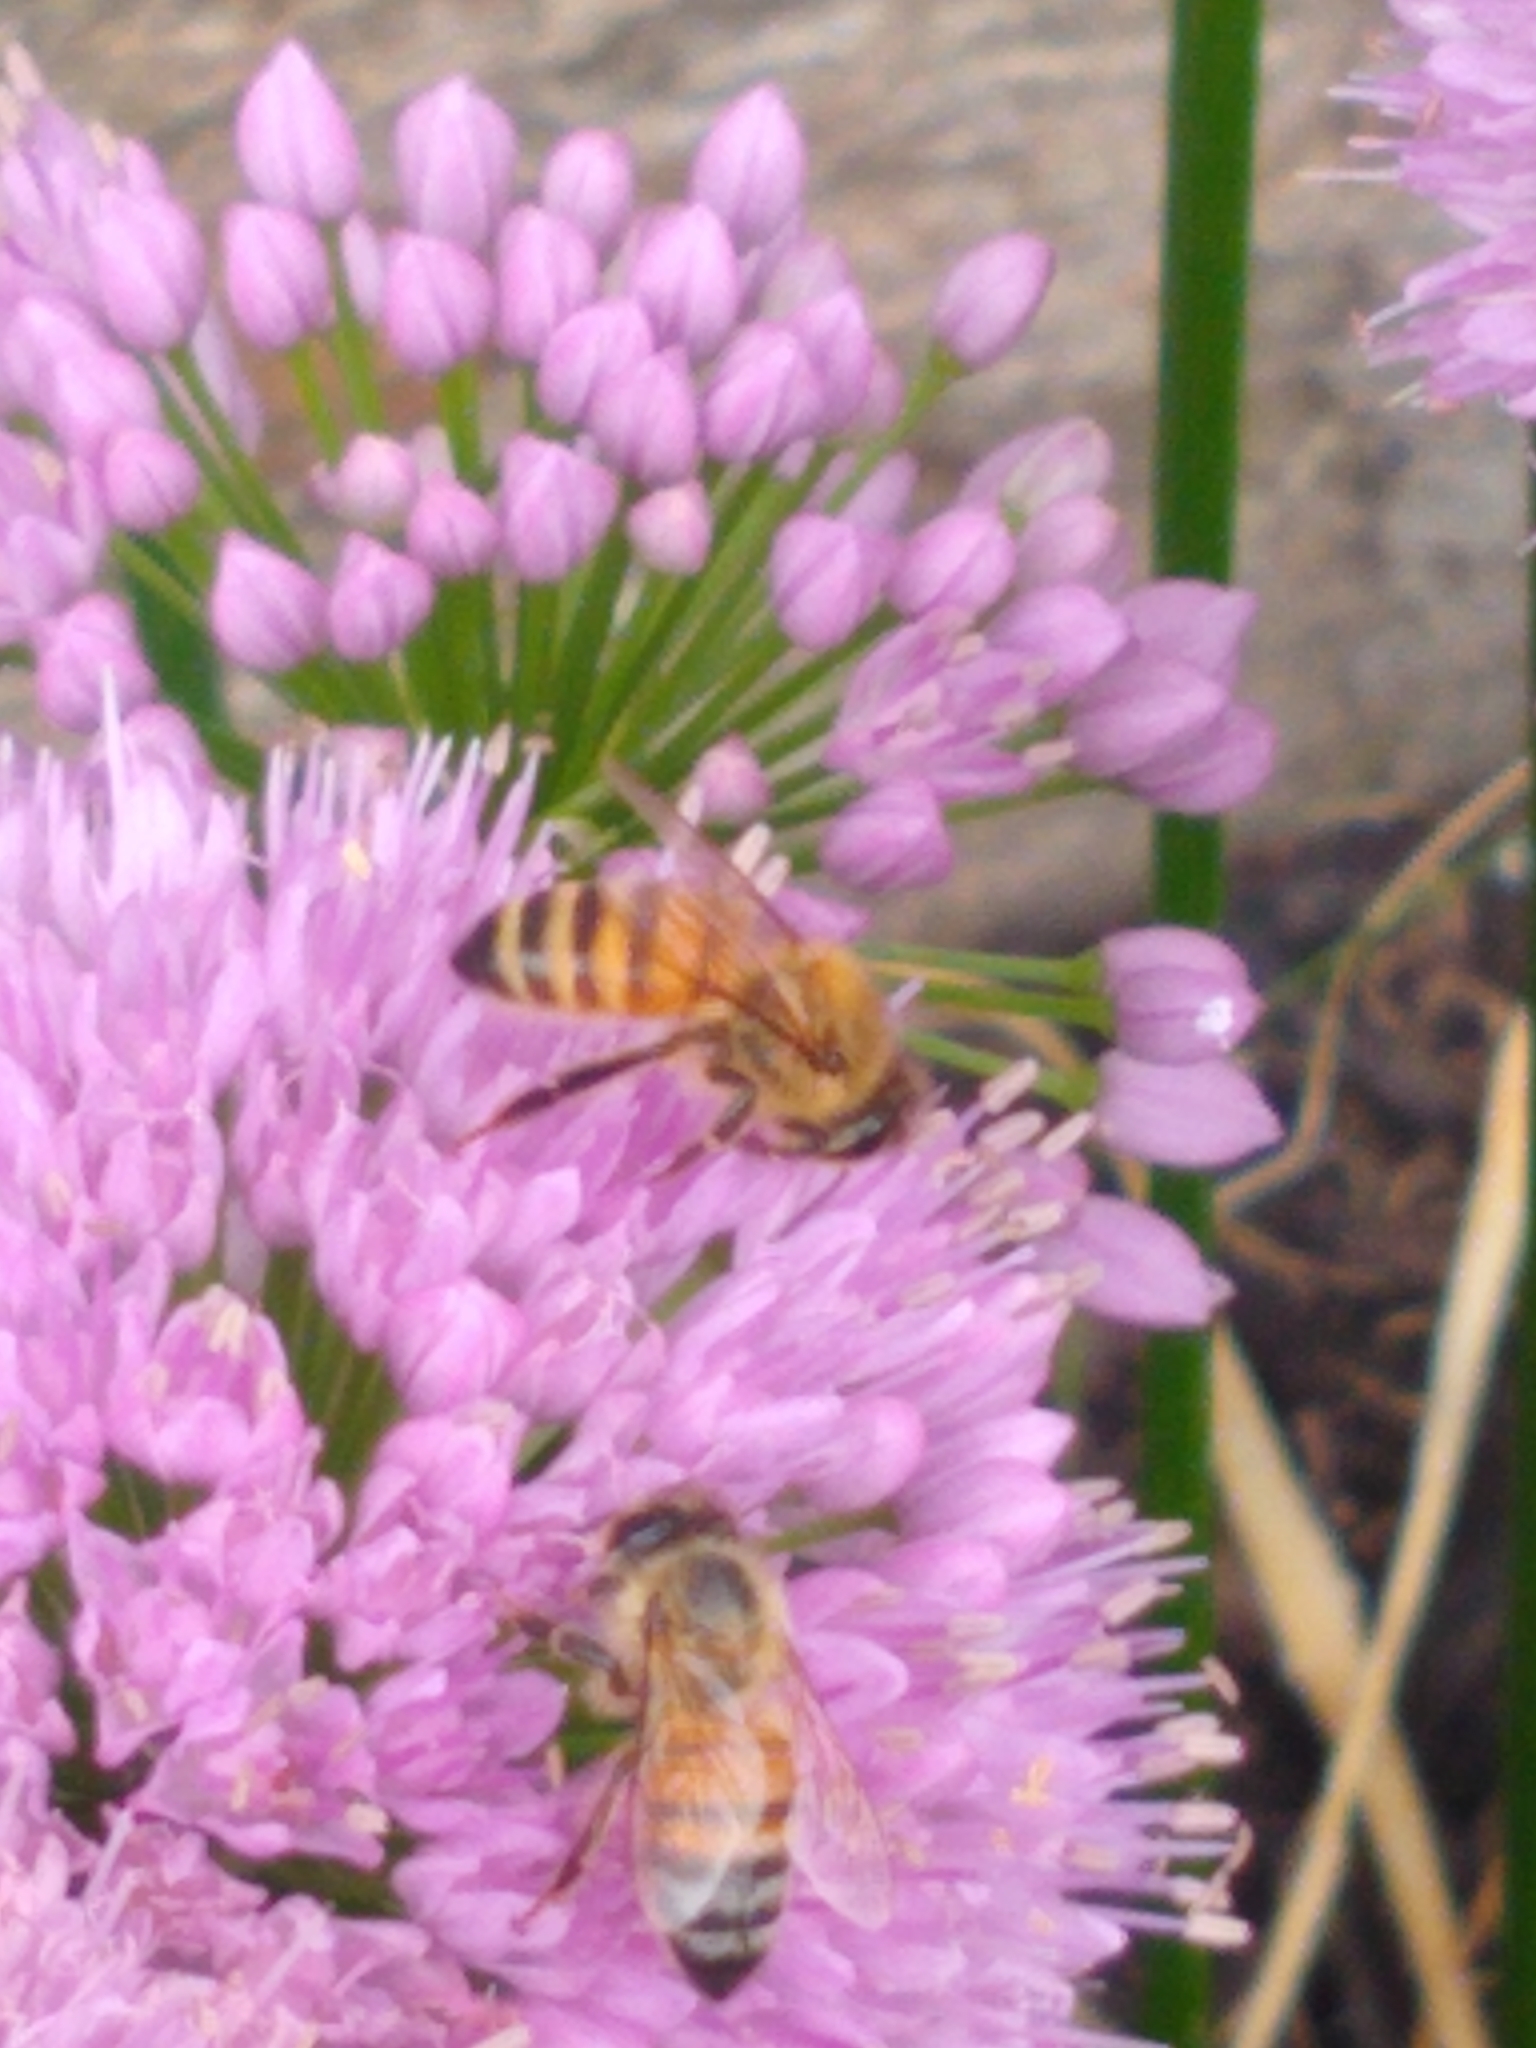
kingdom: Animalia
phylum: Arthropoda
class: Insecta
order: Hymenoptera
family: Apidae
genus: Apis
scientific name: Apis mellifera
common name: Honey bee
